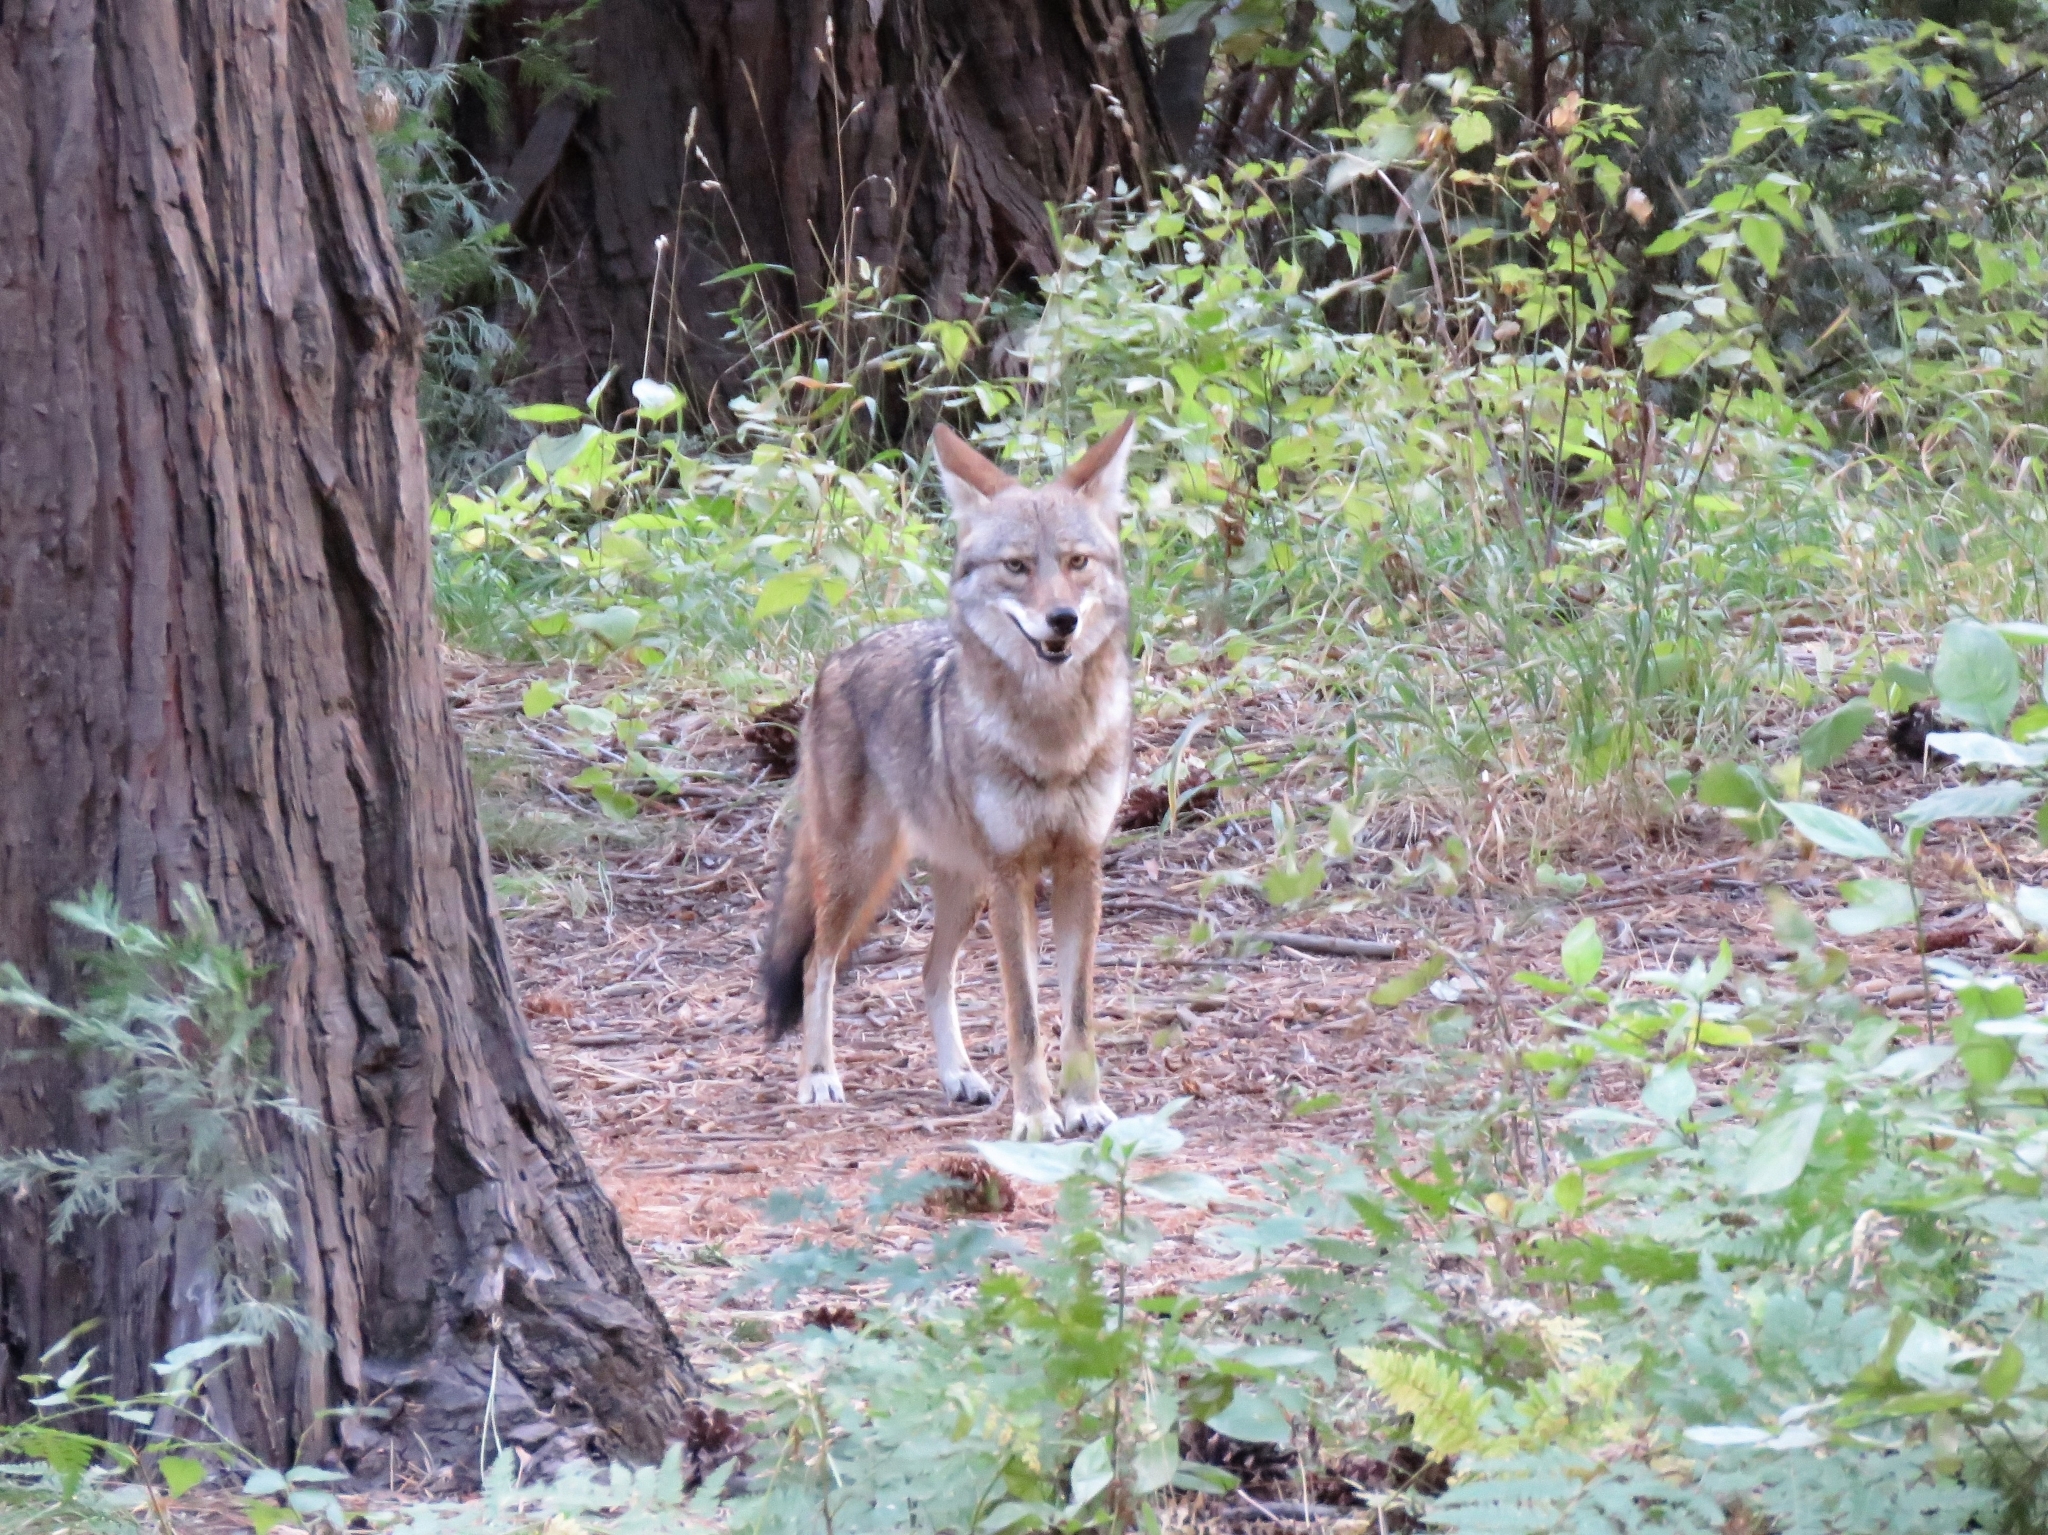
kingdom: Animalia
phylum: Chordata
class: Mammalia
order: Carnivora
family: Canidae
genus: Canis
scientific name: Canis latrans
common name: Coyote
